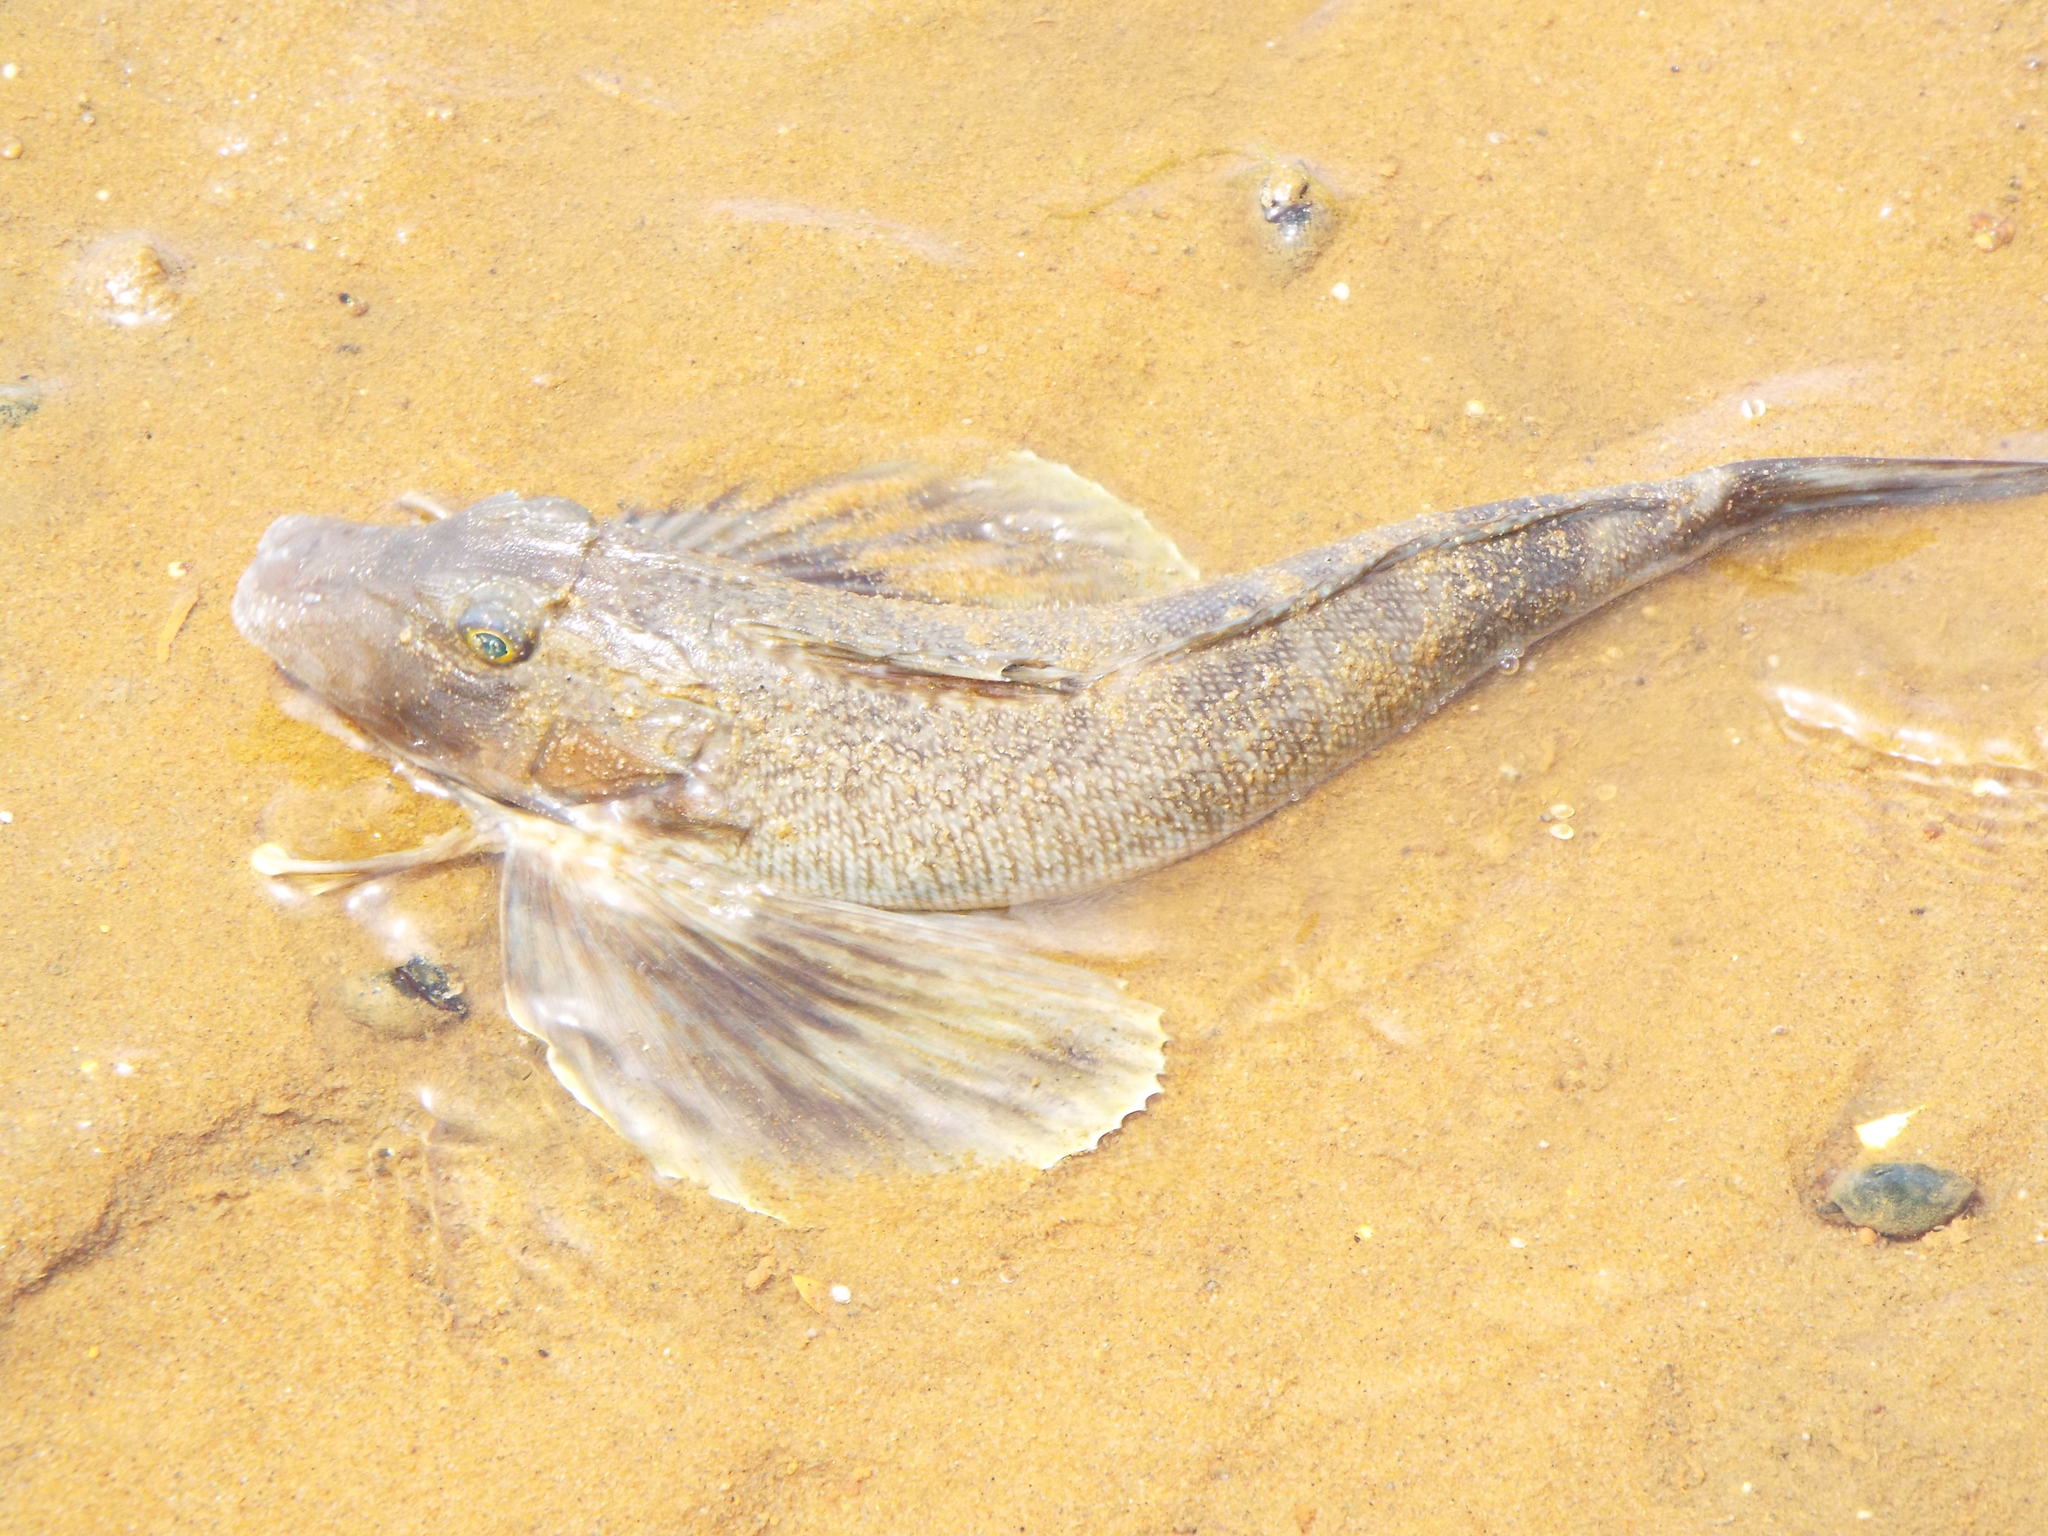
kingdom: Animalia
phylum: Chordata
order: Scorpaeniformes
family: Triglidae
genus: Prionotus
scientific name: Prionotus carolinus
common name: Northern searobin
